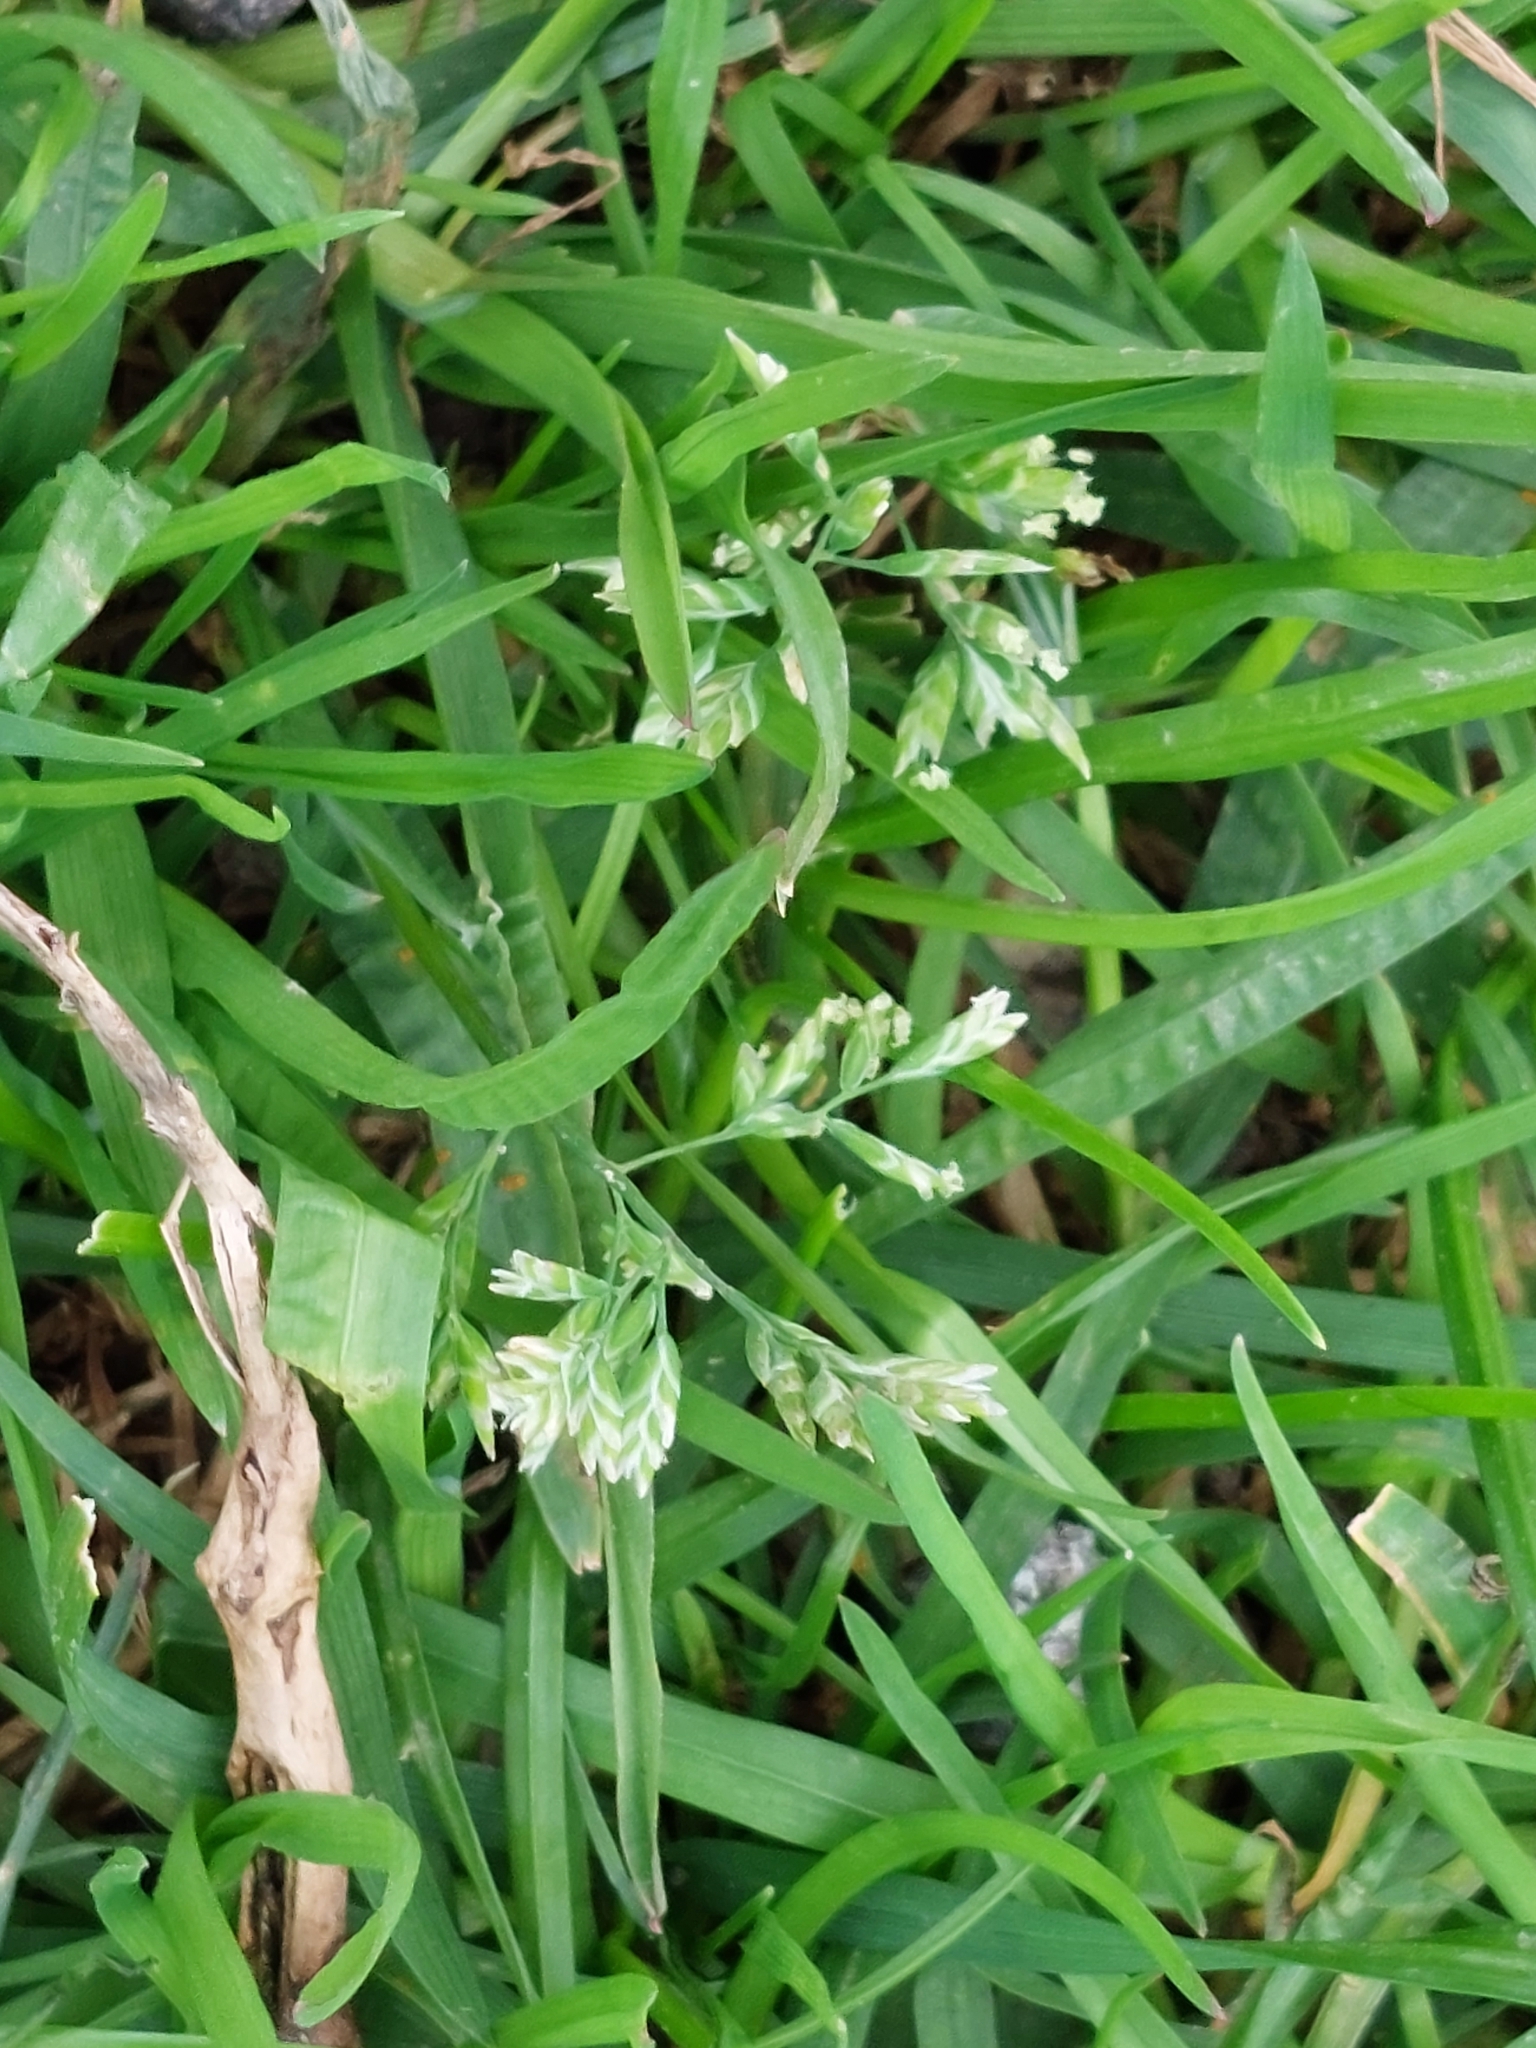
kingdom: Plantae
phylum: Tracheophyta
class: Liliopsida
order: Poales
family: Poaceae
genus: Poa
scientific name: Poa annua
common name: Annual bluegrass
